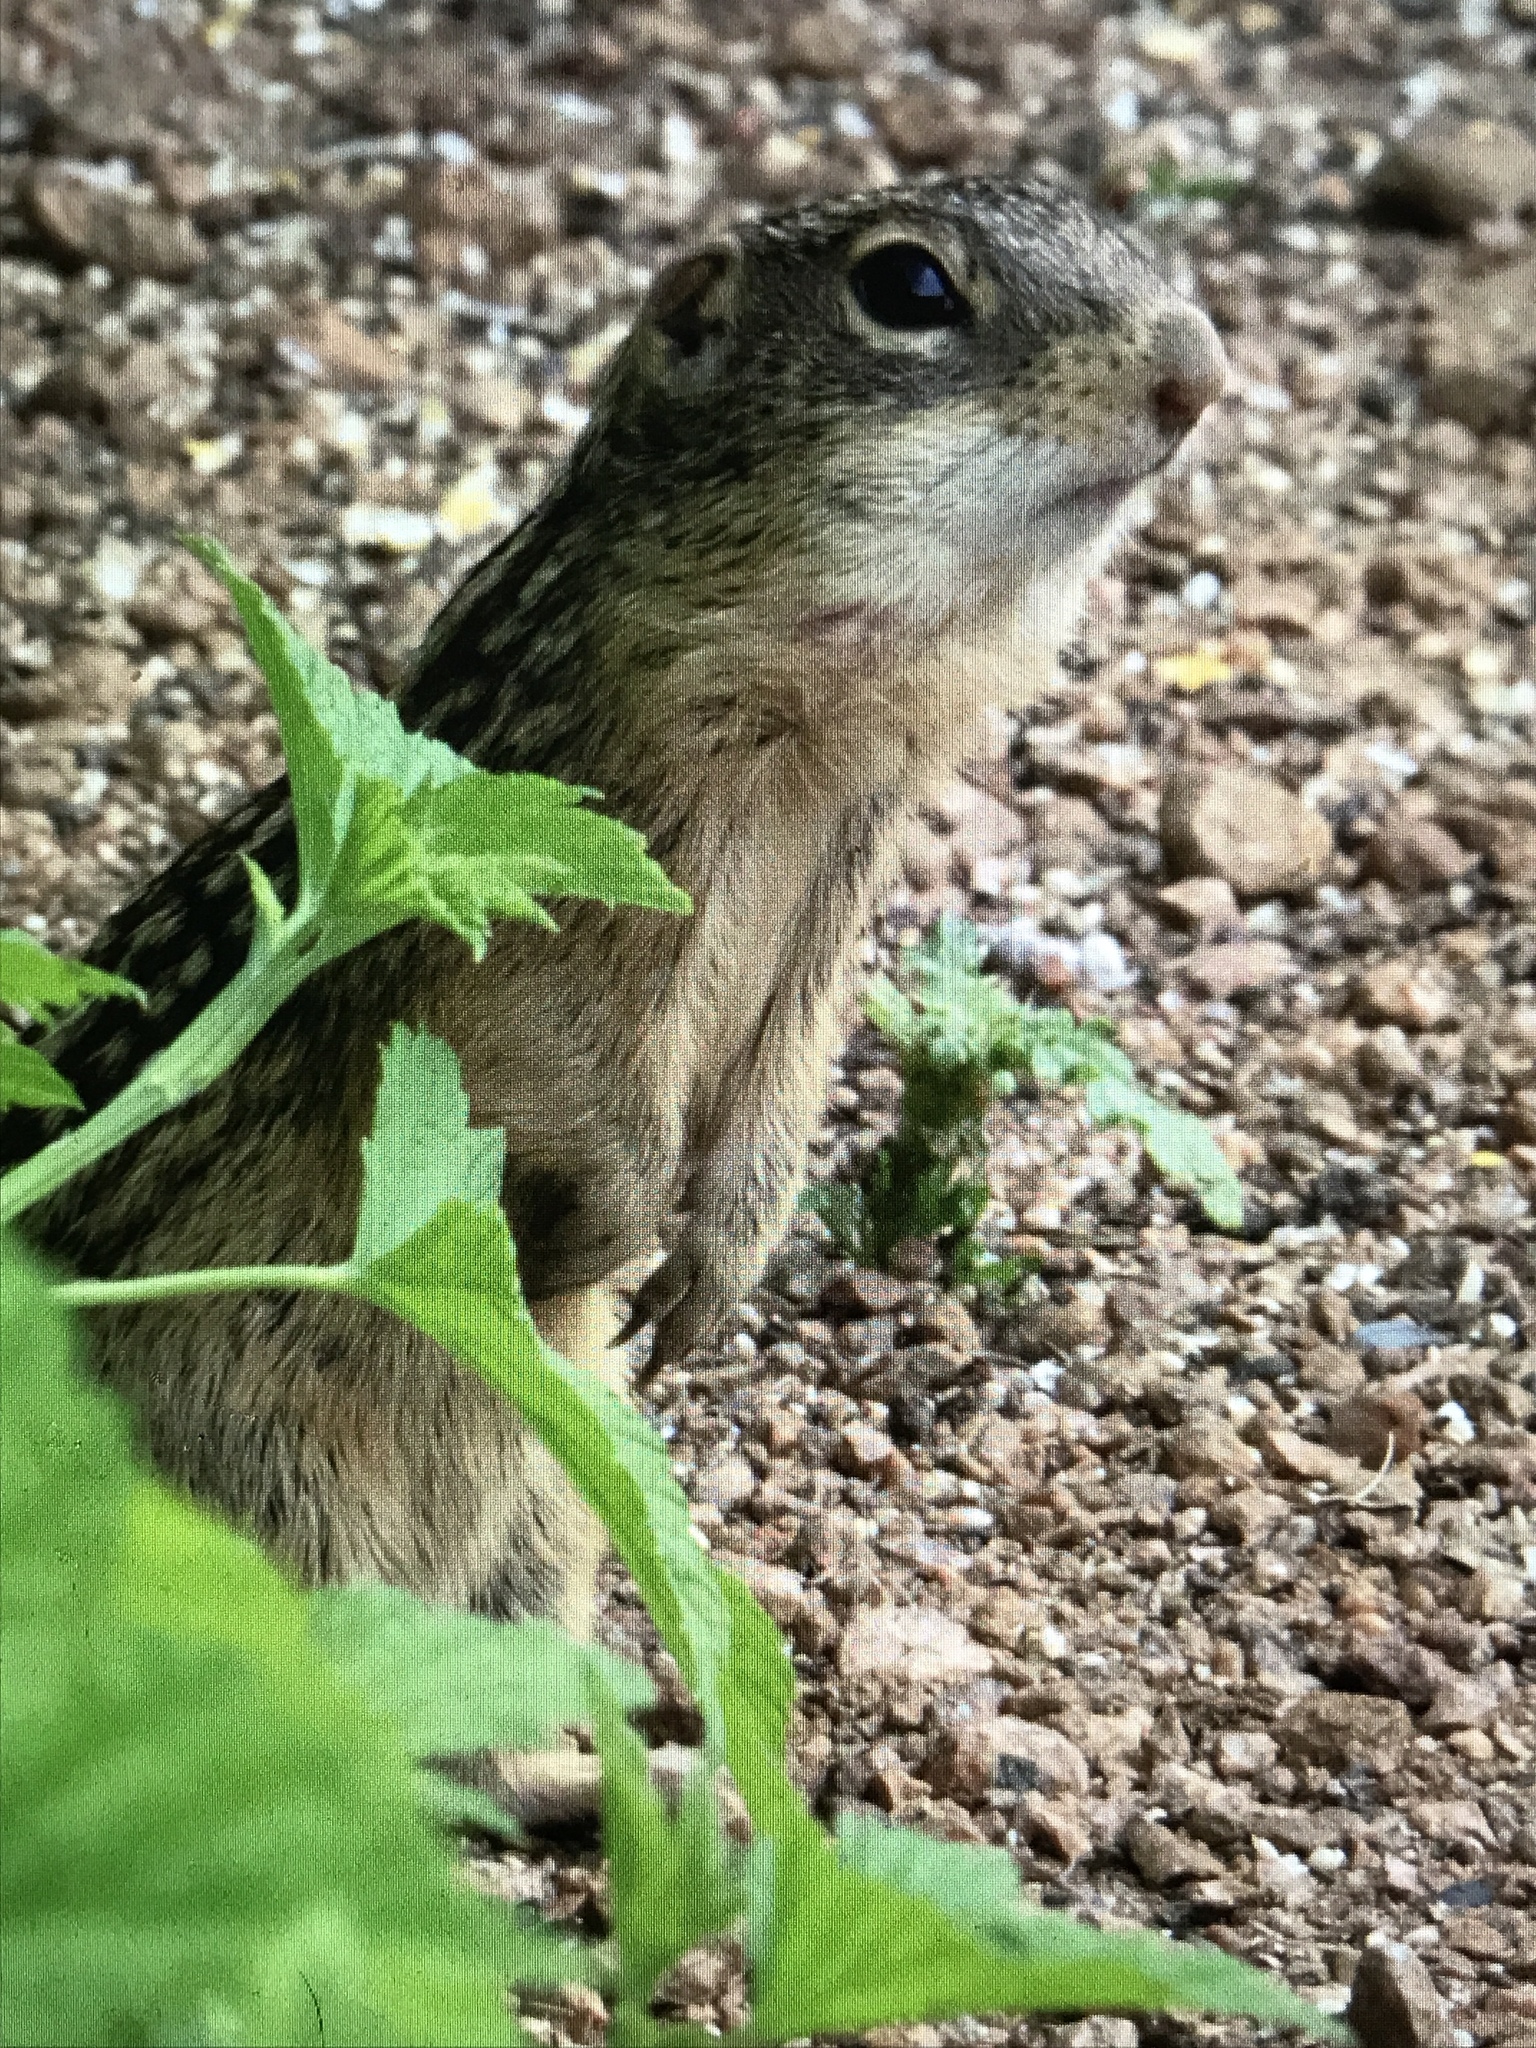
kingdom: Animalia
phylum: Chordata
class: Mammalia
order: Rodentia
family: Sciuridae
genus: Ictidomys
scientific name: Ictidomys tridecemlineatus
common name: Thirteen-lined ground squirrel
